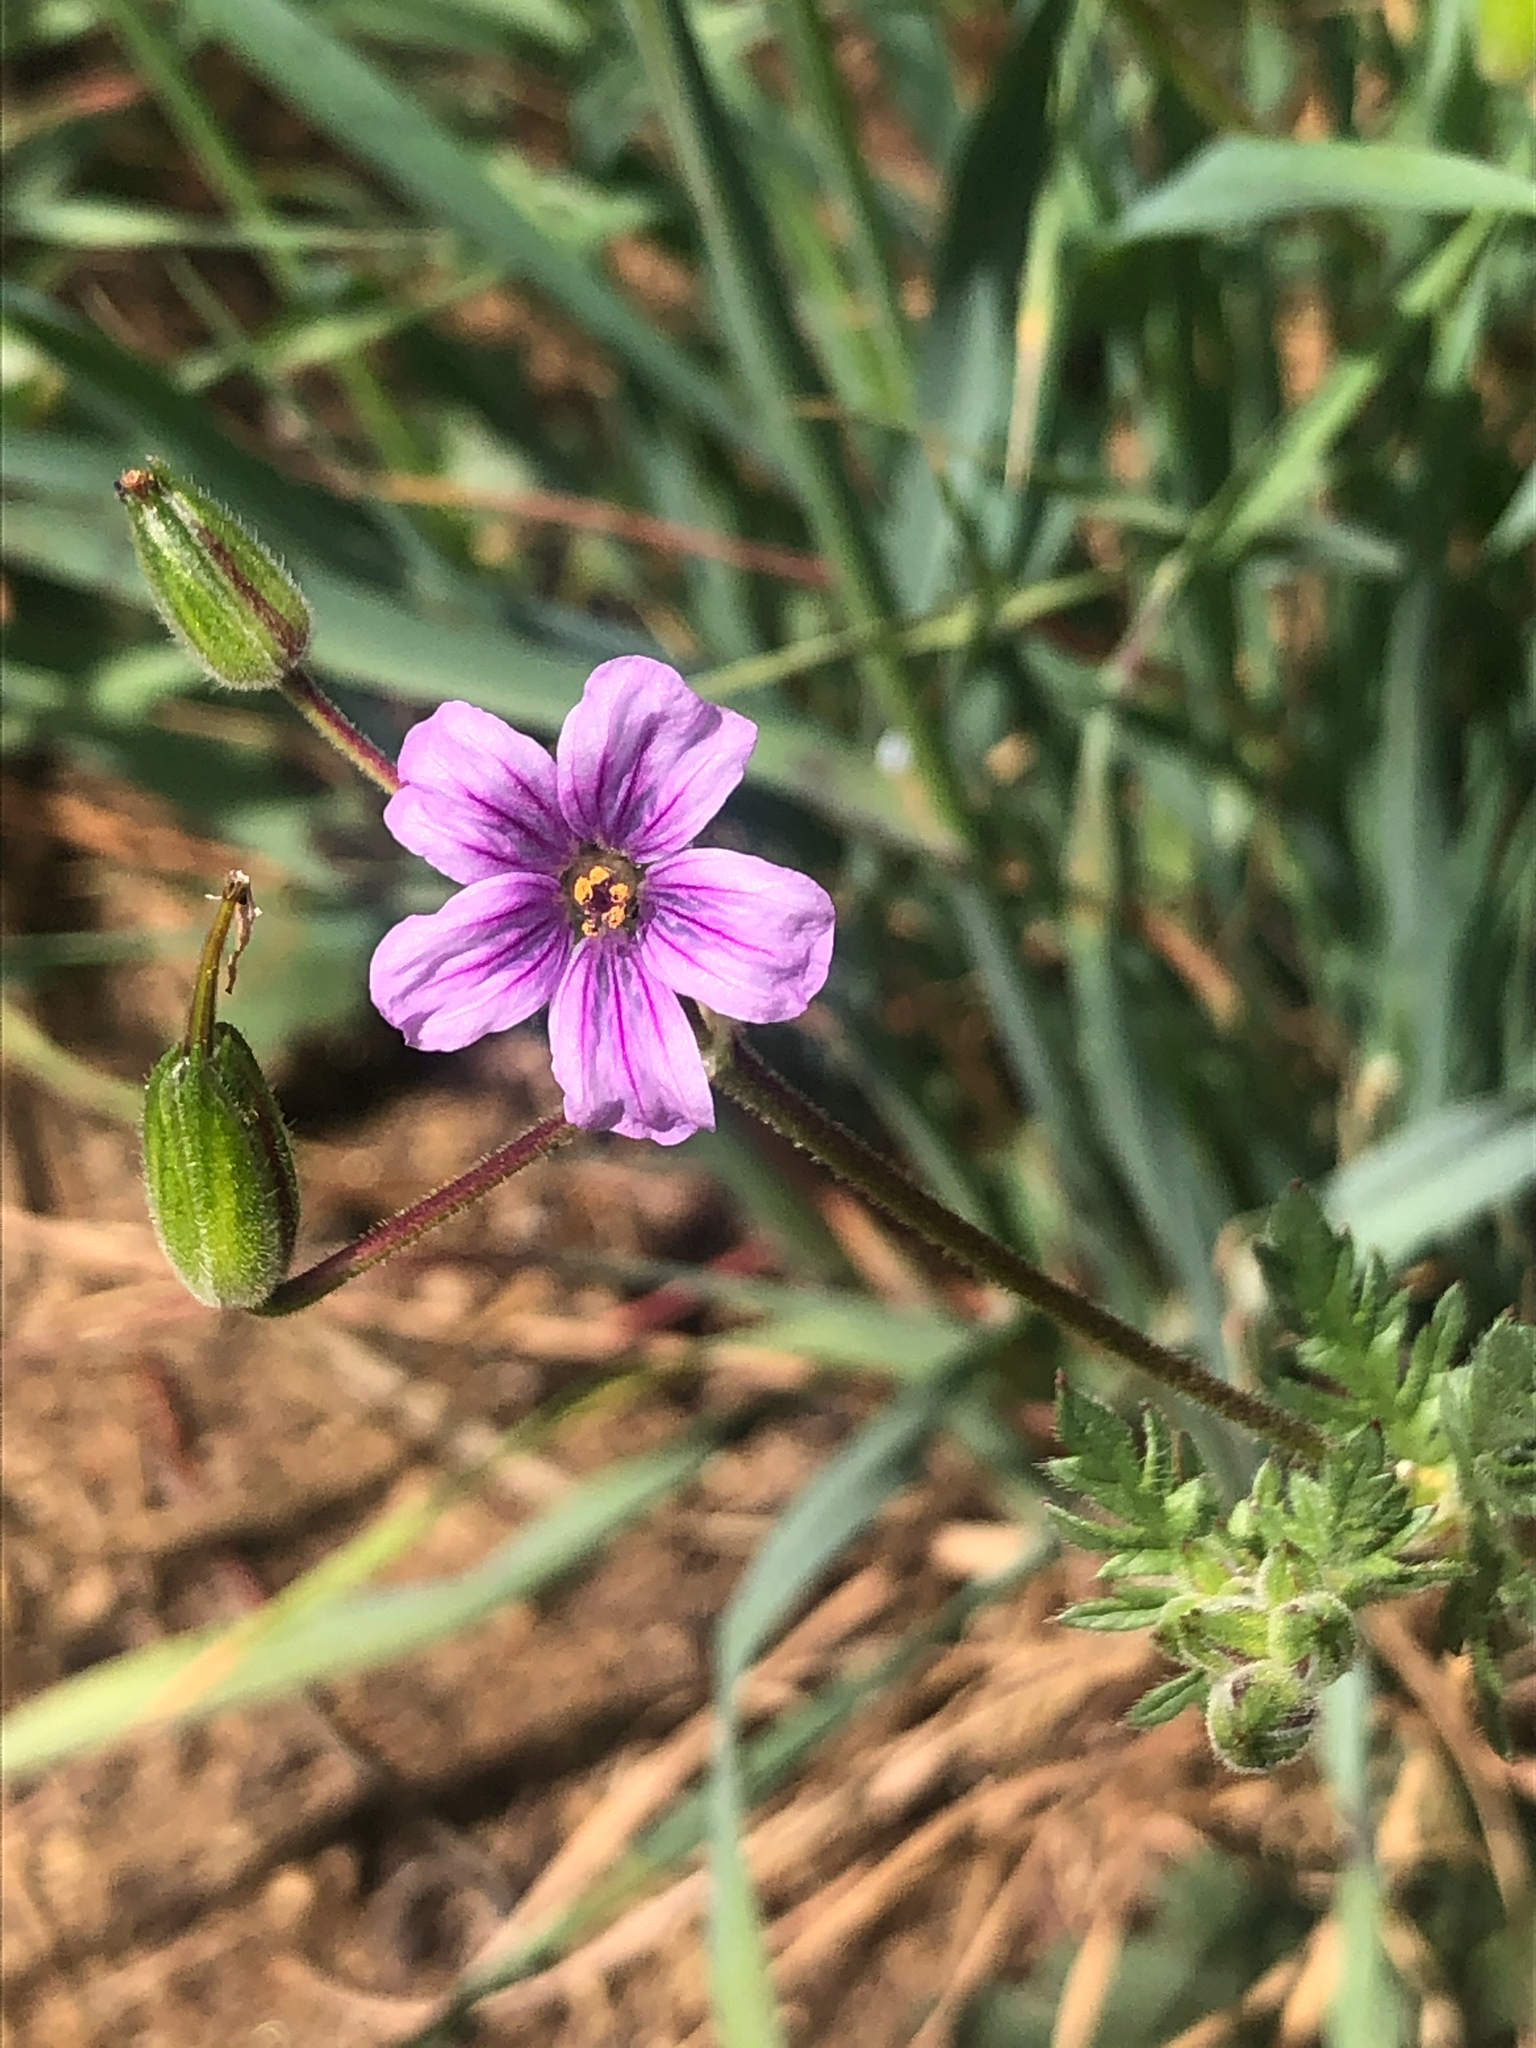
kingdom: Plantae
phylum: Tracheophyta
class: Magnoliopsida
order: Geraniales
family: Geraniaceae
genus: Erodium
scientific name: Erodium botrys
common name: Mediterranean stork's-bill
